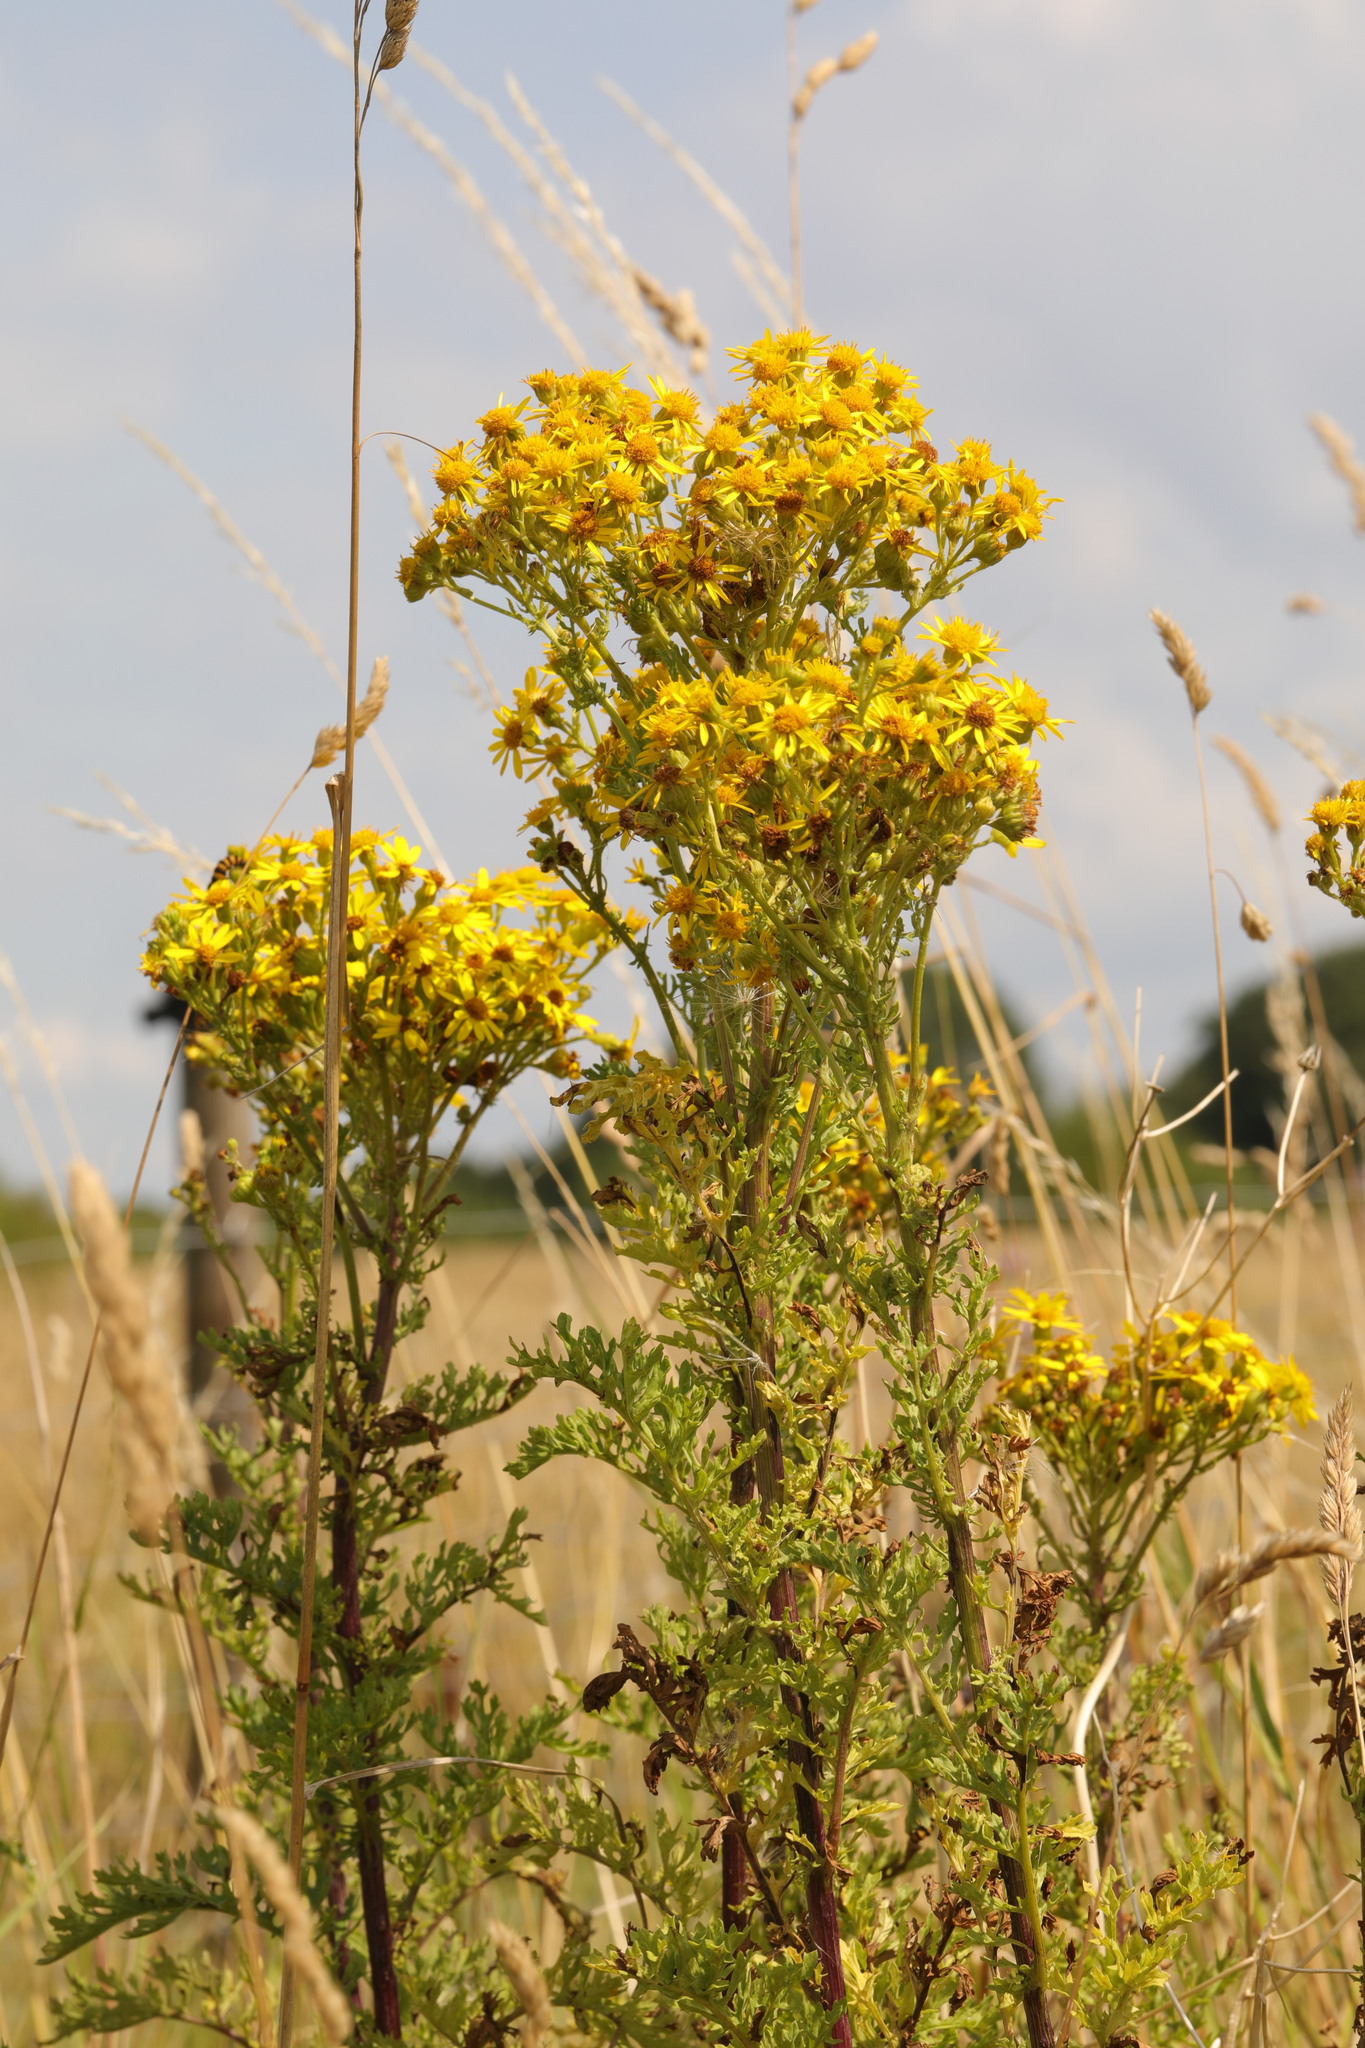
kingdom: Plantae
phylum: Tracheophyta
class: Magnoliopsida
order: Asterales
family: Asteraceae
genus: Jacobaea
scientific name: Jacobaea vulgaris
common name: Stinking willie
